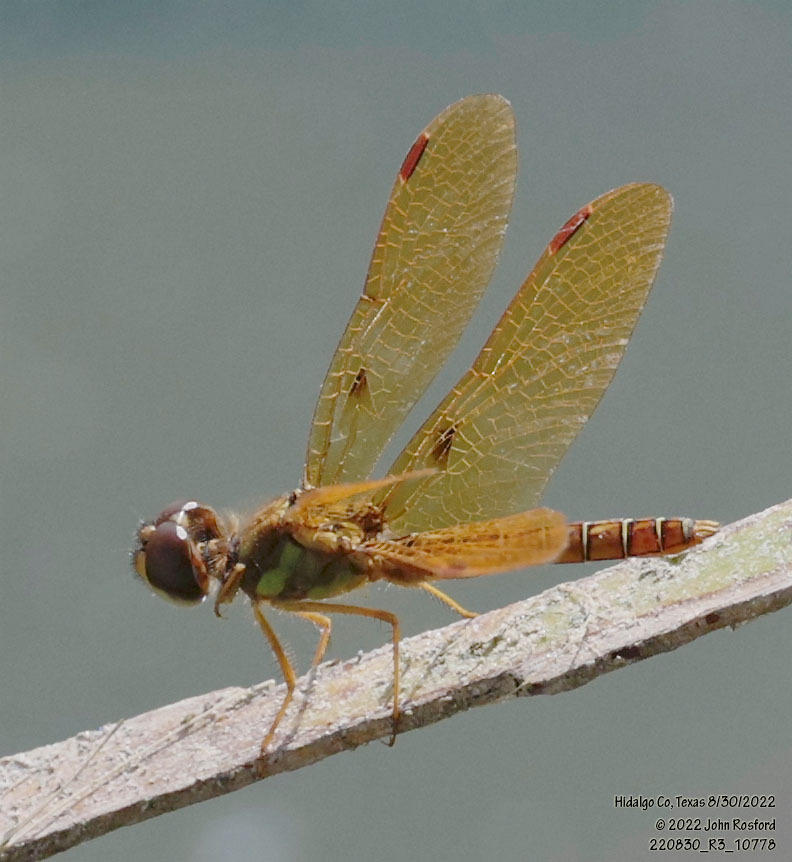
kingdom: Animalia
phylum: Arthropoda
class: Insecta
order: Odonata
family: Libellulidae
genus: Perithemis
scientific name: Perithemis tenera
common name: Eastern amberwing
